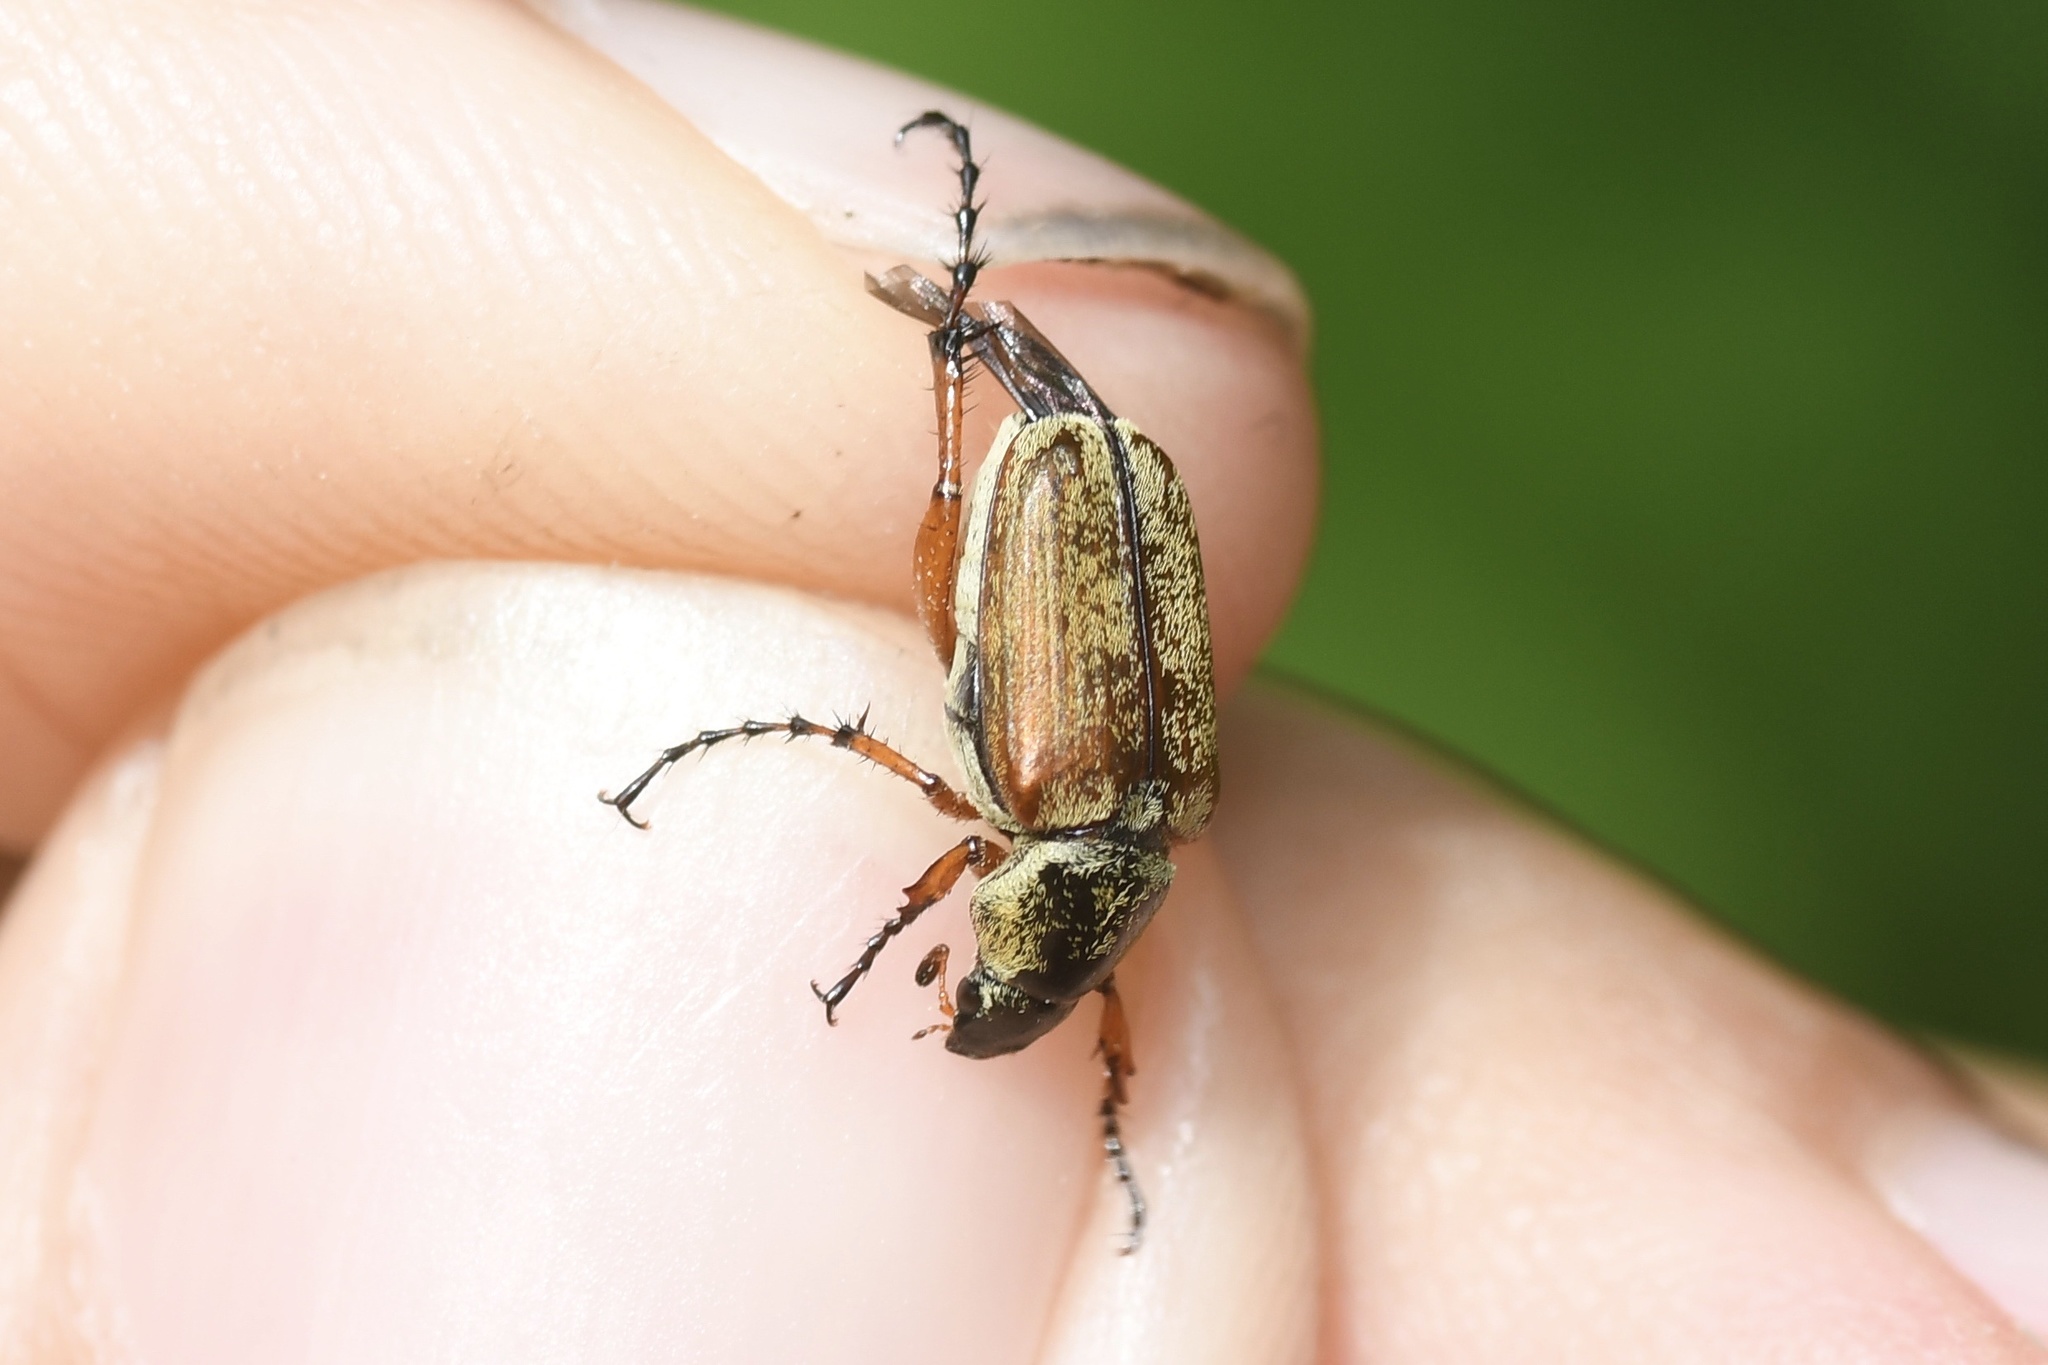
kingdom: Animalia
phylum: Arthropoda
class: Insecta
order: Coleoptera
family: Scarabaeidae
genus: Macrodactylus
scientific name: Macrodactylus subspinosus
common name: American rose chafer
